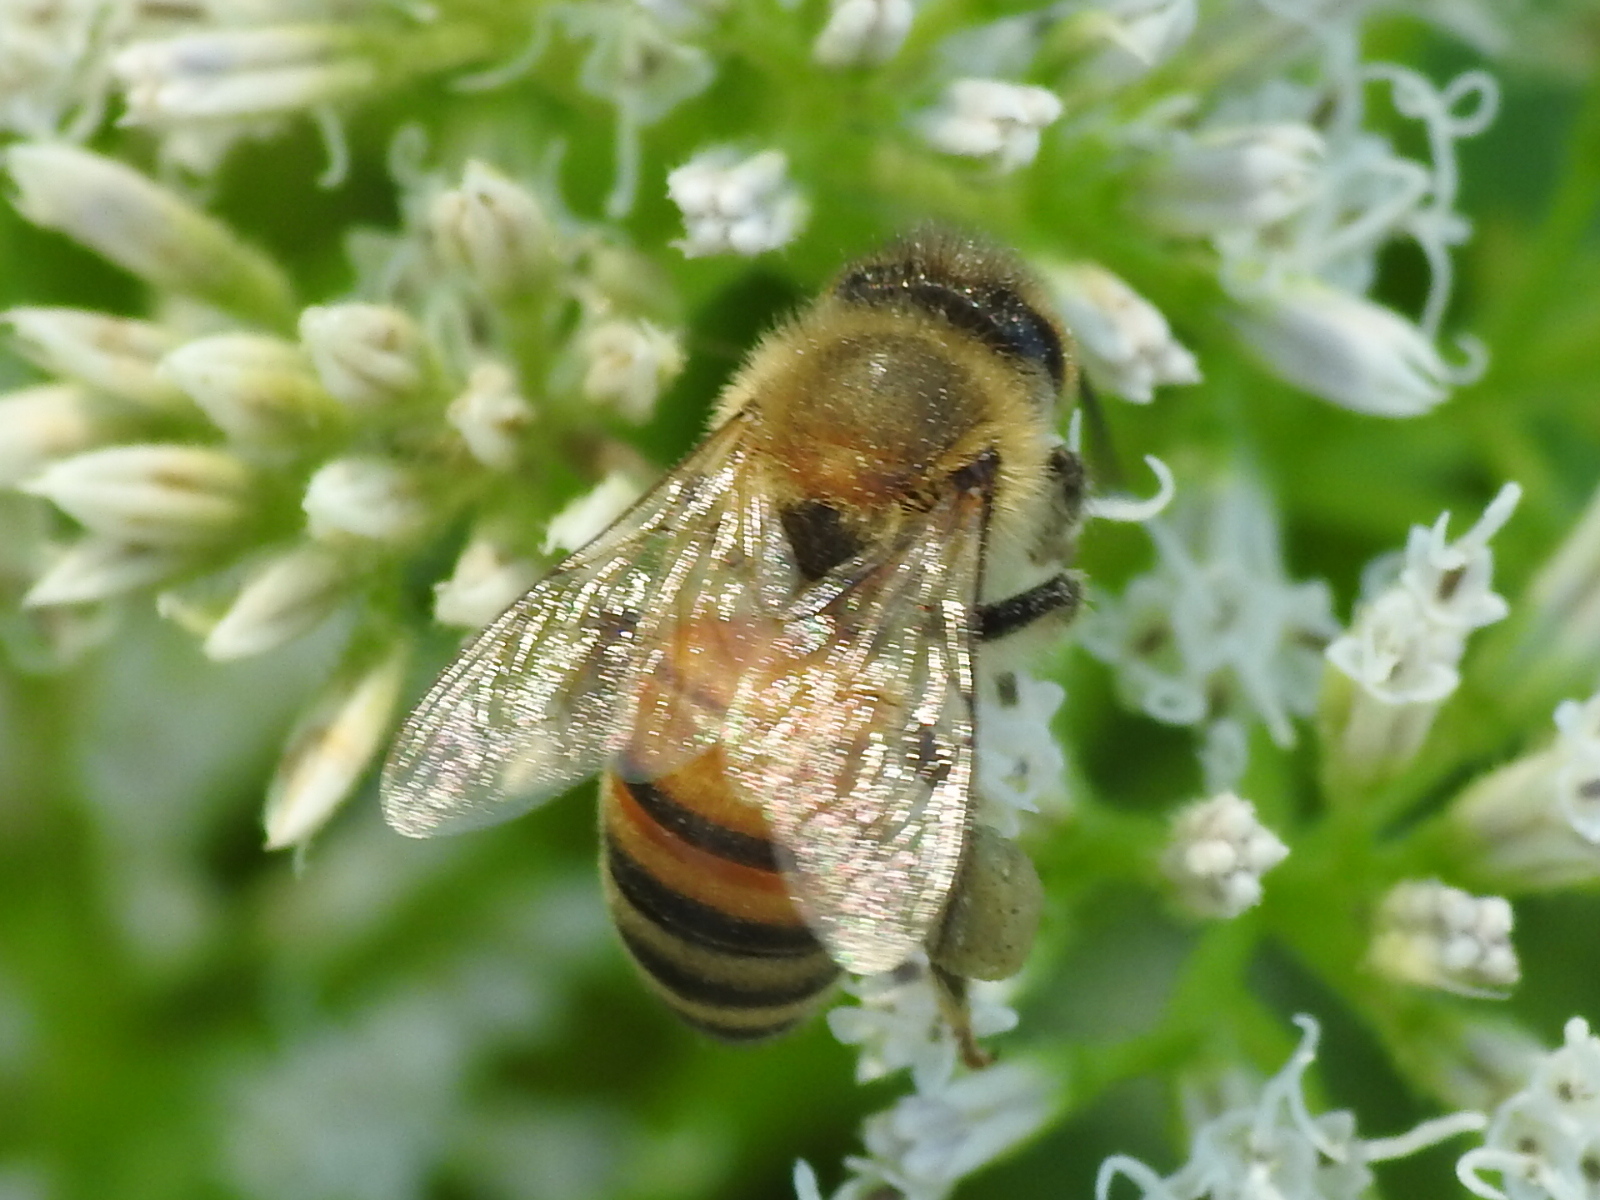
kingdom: Animalia
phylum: Arthropoda
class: Insecta
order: Hymenoptera
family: Apidae
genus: Apis
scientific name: Apis mellifera
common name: Honey bee
